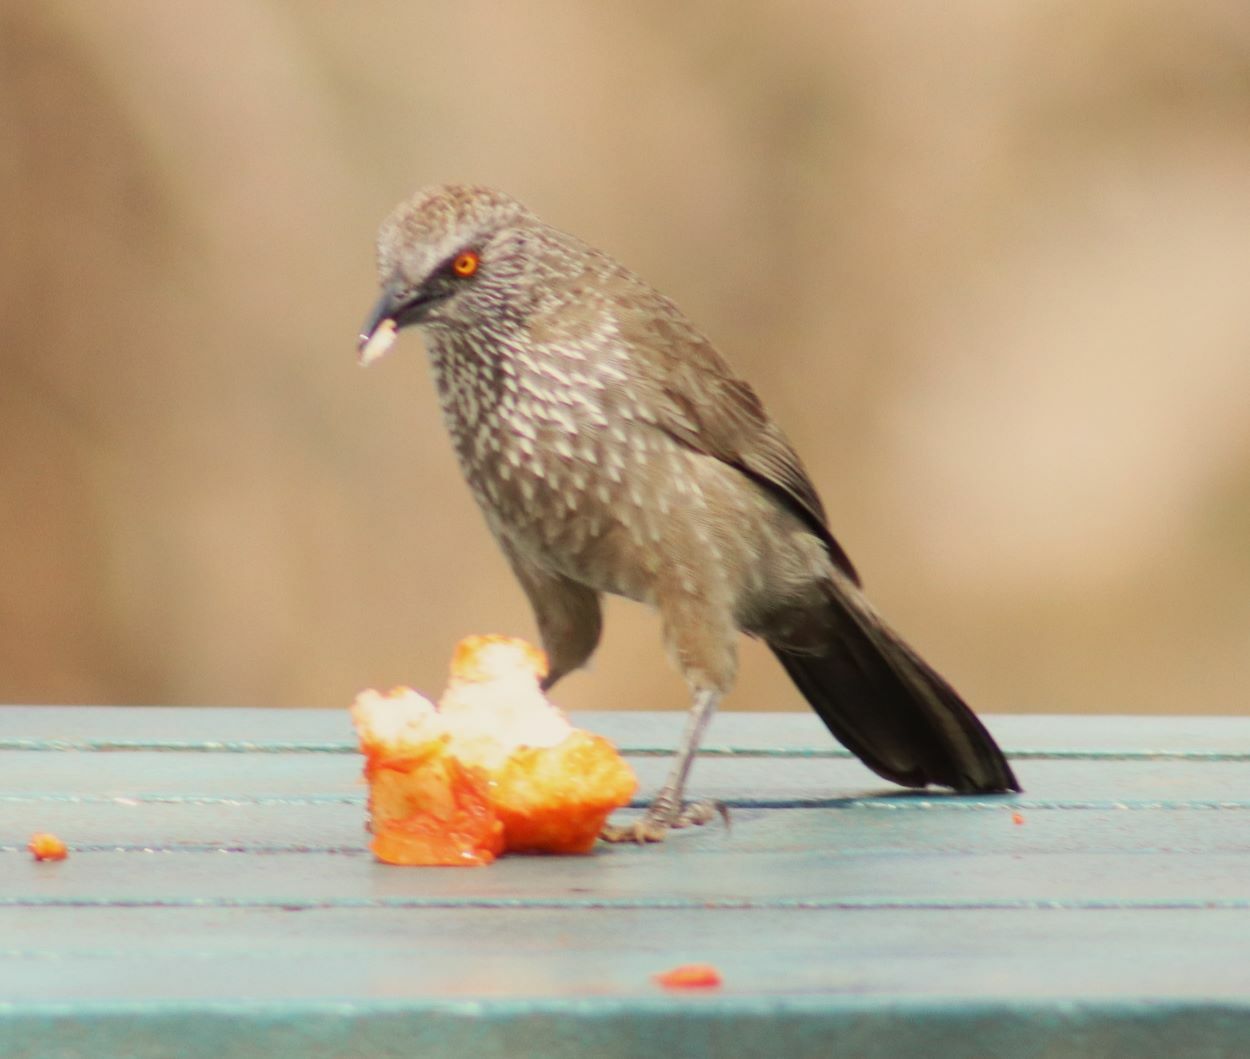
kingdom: Animalia
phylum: Chordata
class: Aves
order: Passeriformes
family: Leiothrichidae
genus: Turdoides
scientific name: Turdoides jardineii
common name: Arrow-marked babbler
